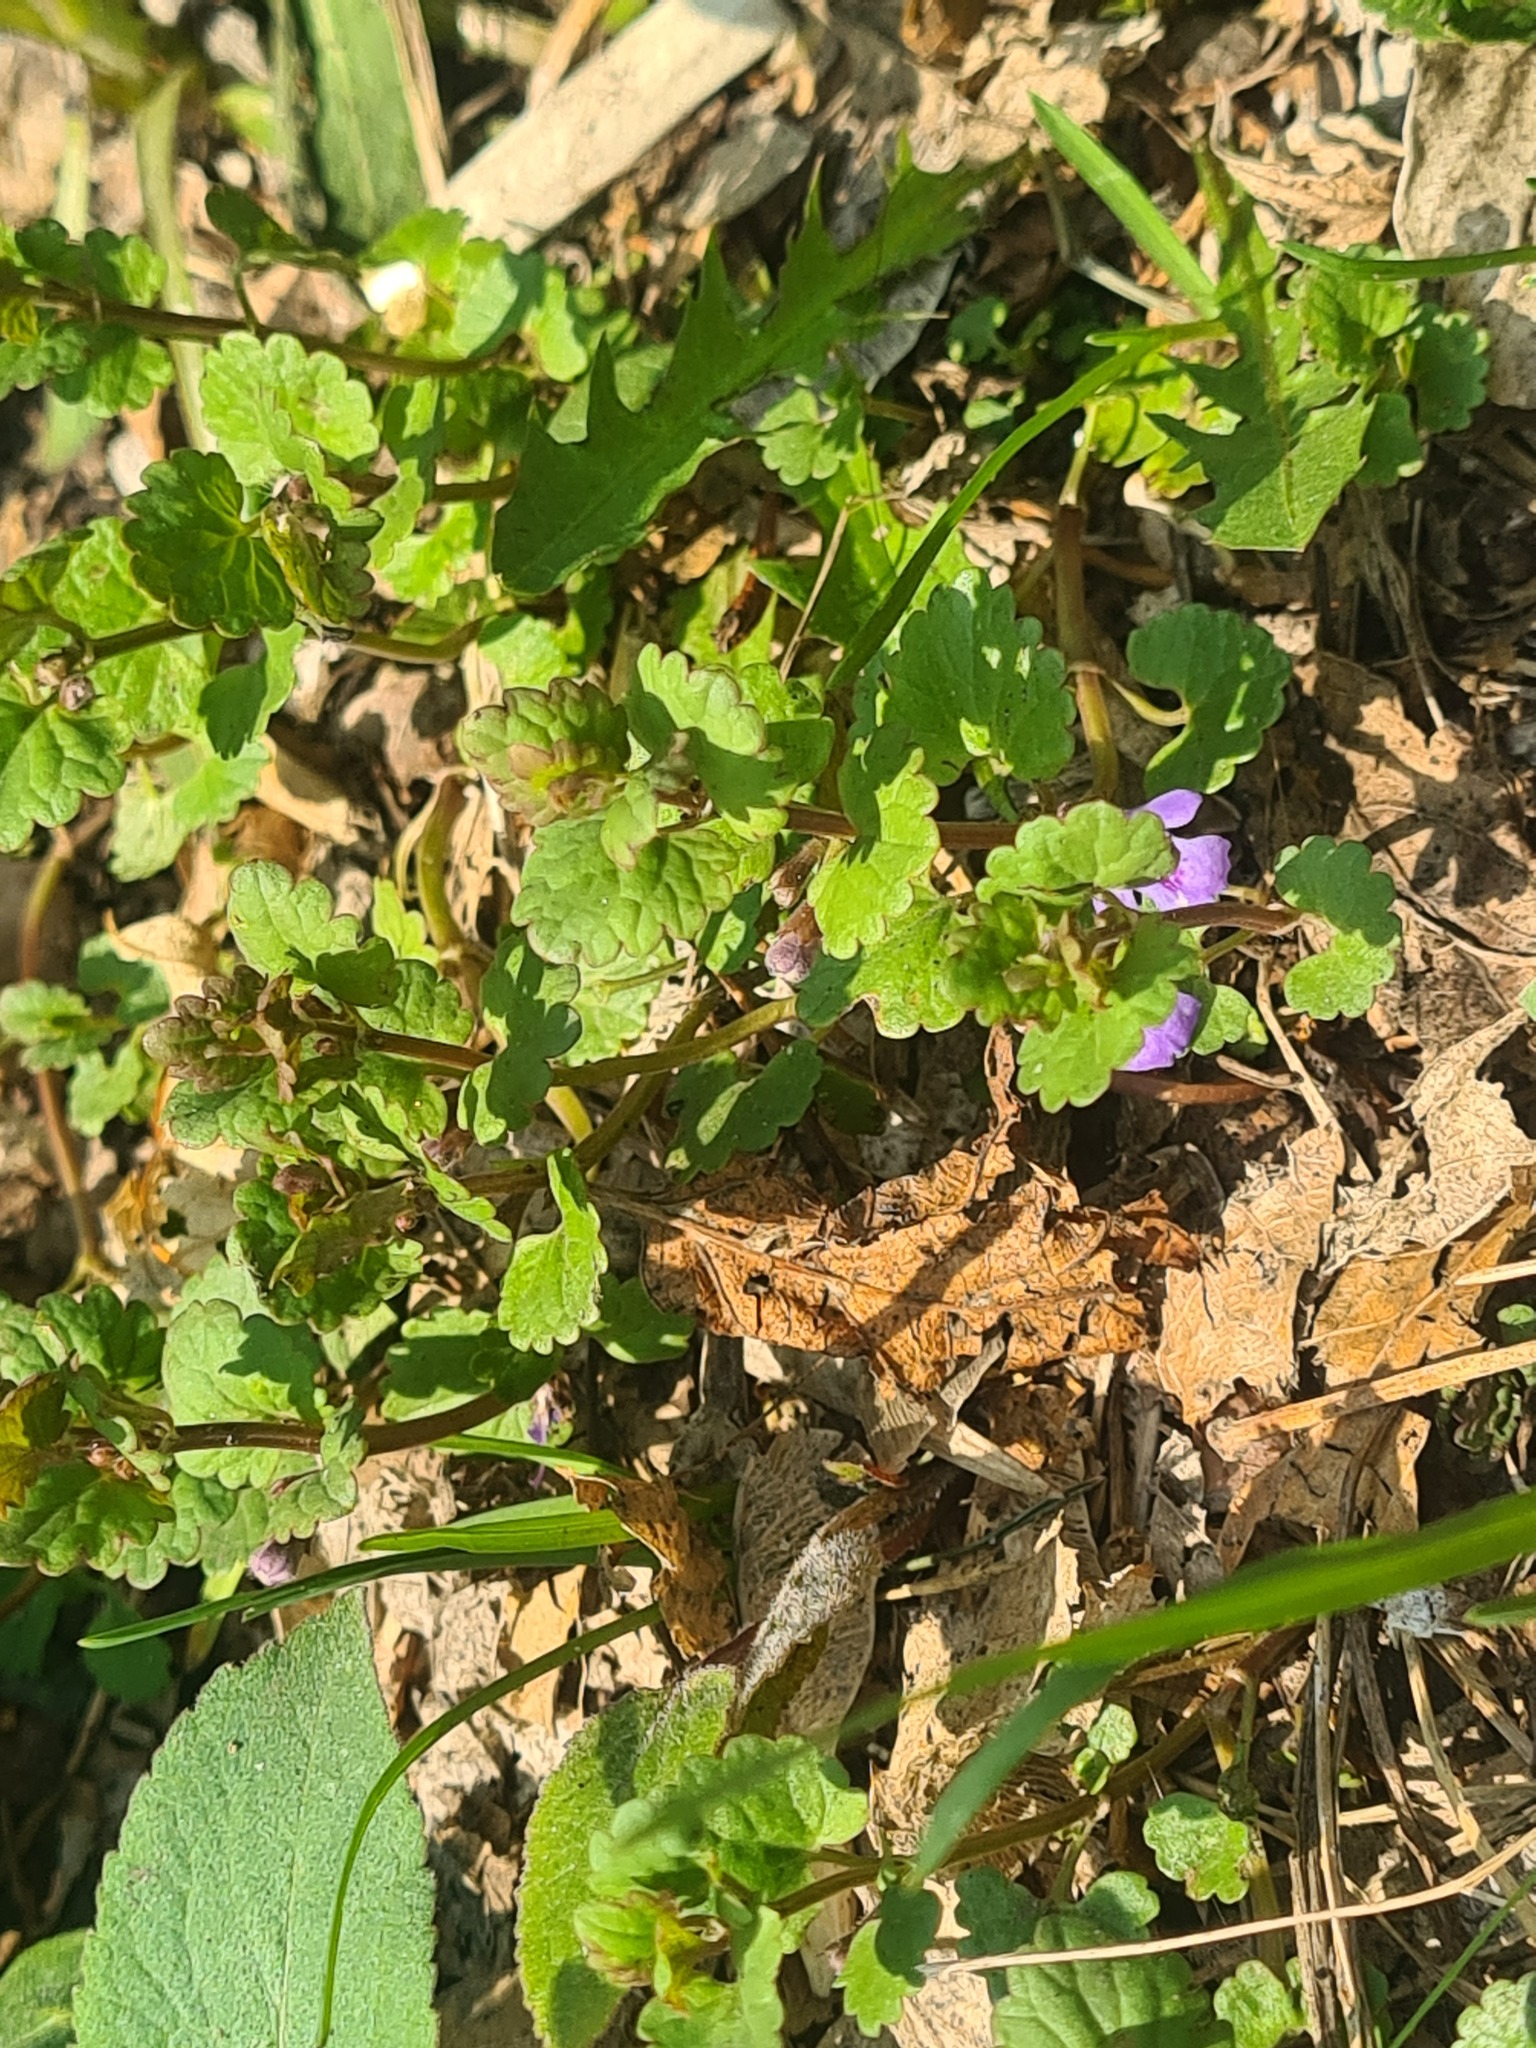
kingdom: Plantae
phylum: Tracheophyta
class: Magnoliopsida
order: Lamiales
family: Lamiaceae
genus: Glechoma
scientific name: Glechoma hederacea
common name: Ground ivy
